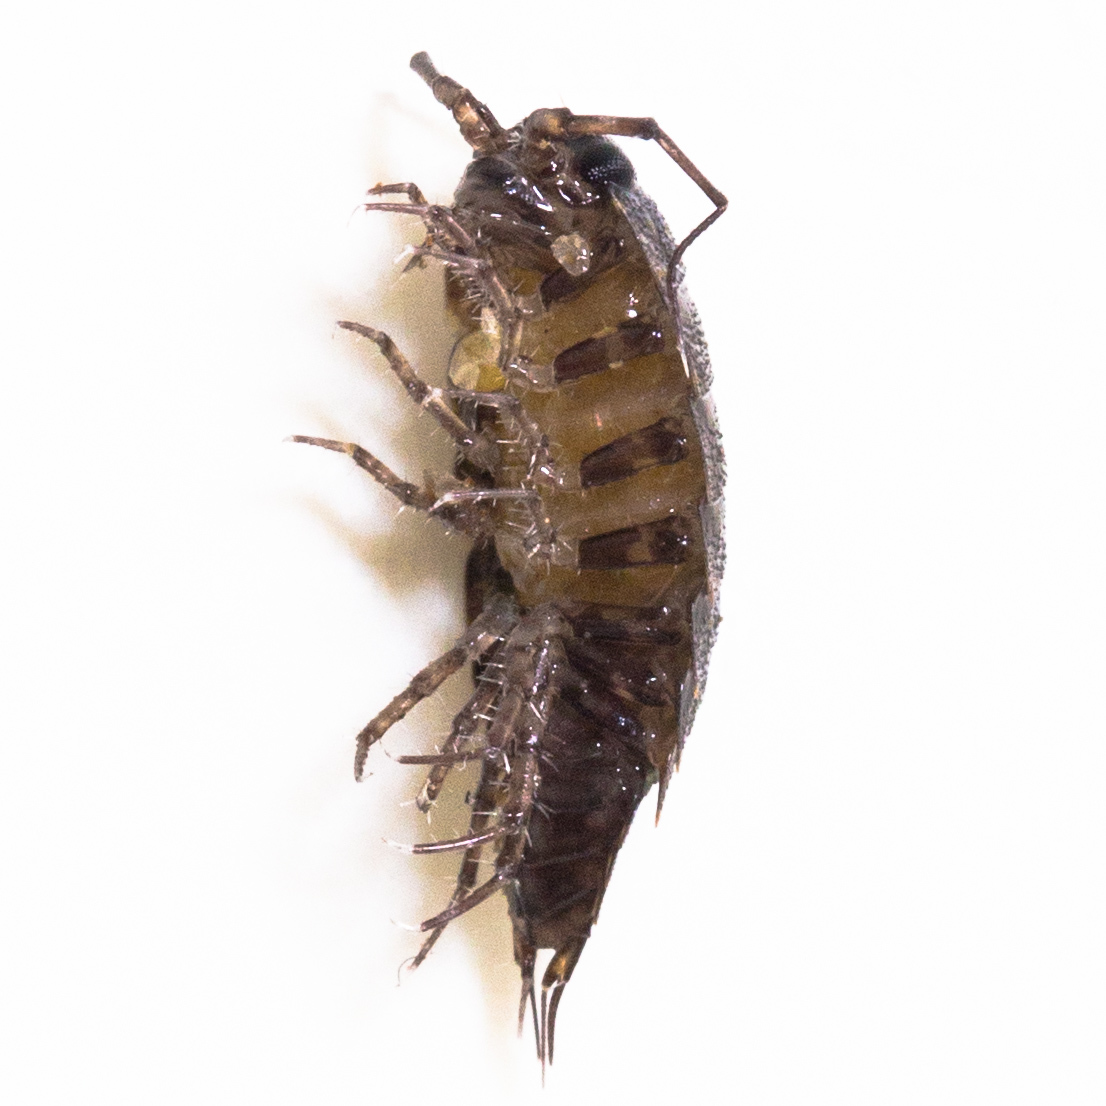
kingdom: Animalia
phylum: Arthropoda
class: Malacostraca
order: Isopoda
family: Ligiidae
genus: Ligidium
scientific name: Ligidium latum
